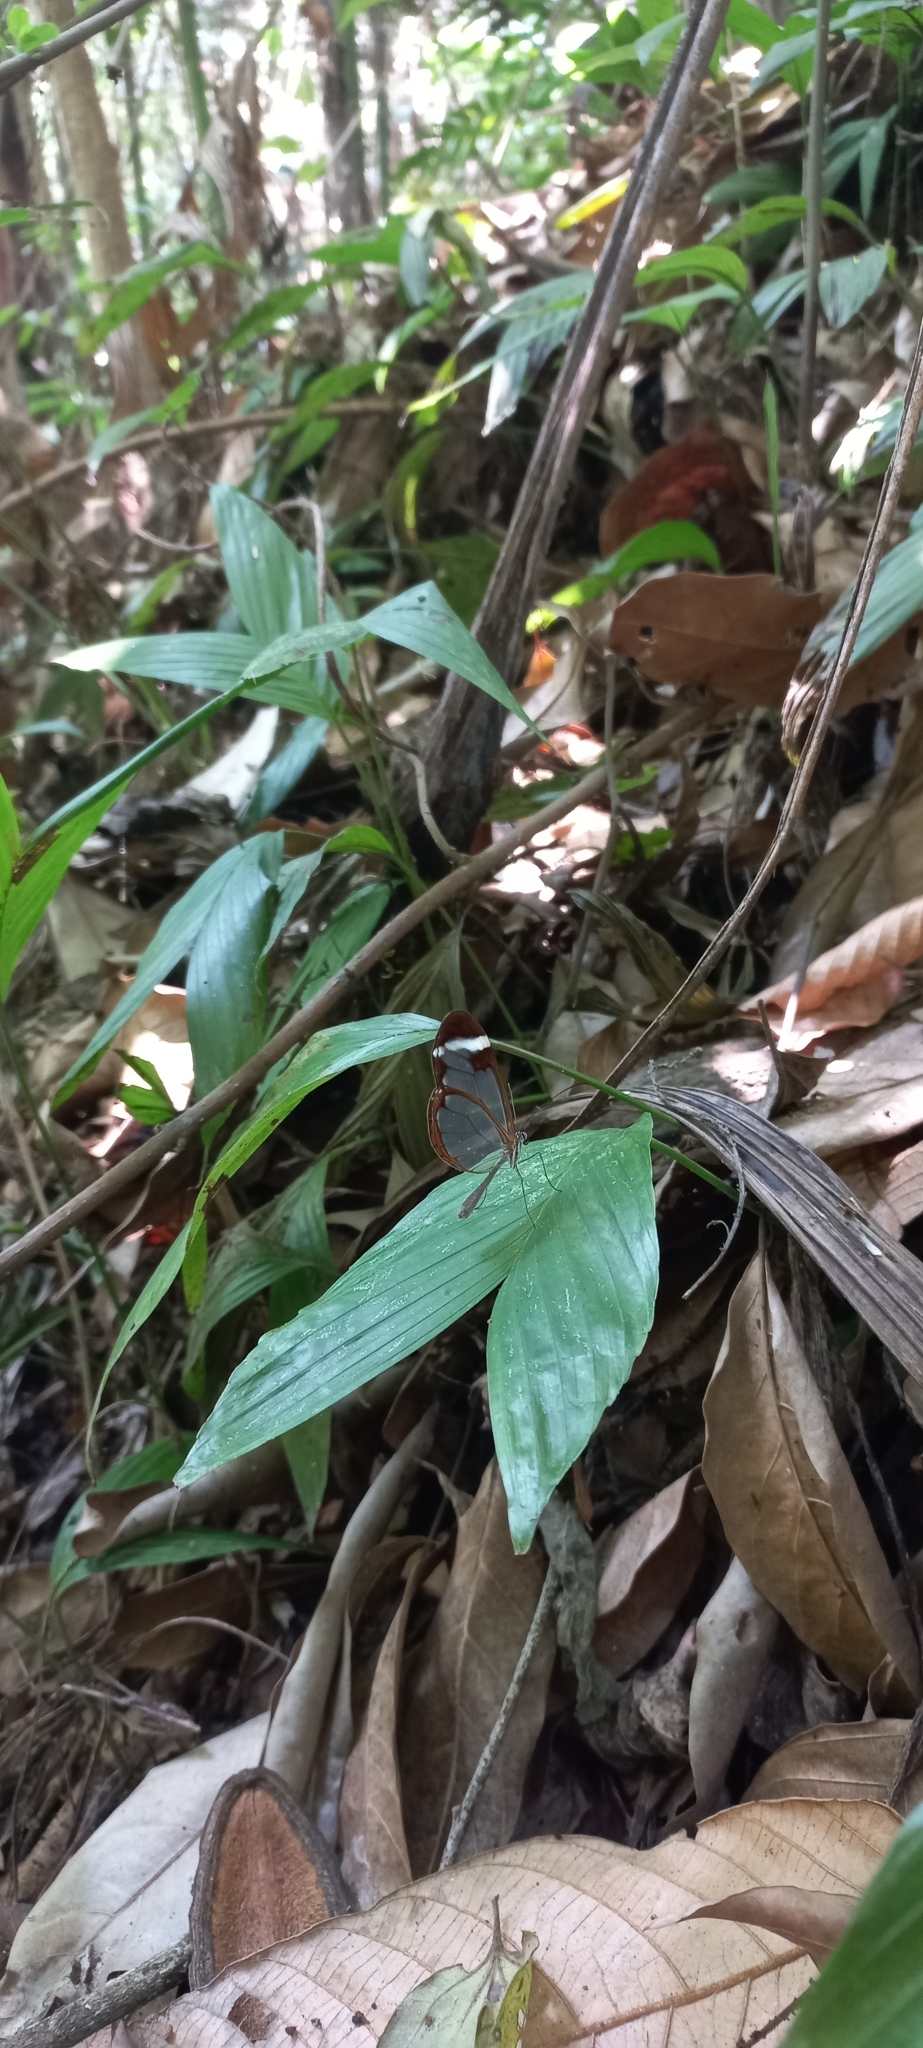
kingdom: Animalia
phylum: Arthropoda
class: Insecta
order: Lepidoptera
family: Nymphalidae
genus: Greta
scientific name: Greta morgane
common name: Thick-tipped greta
